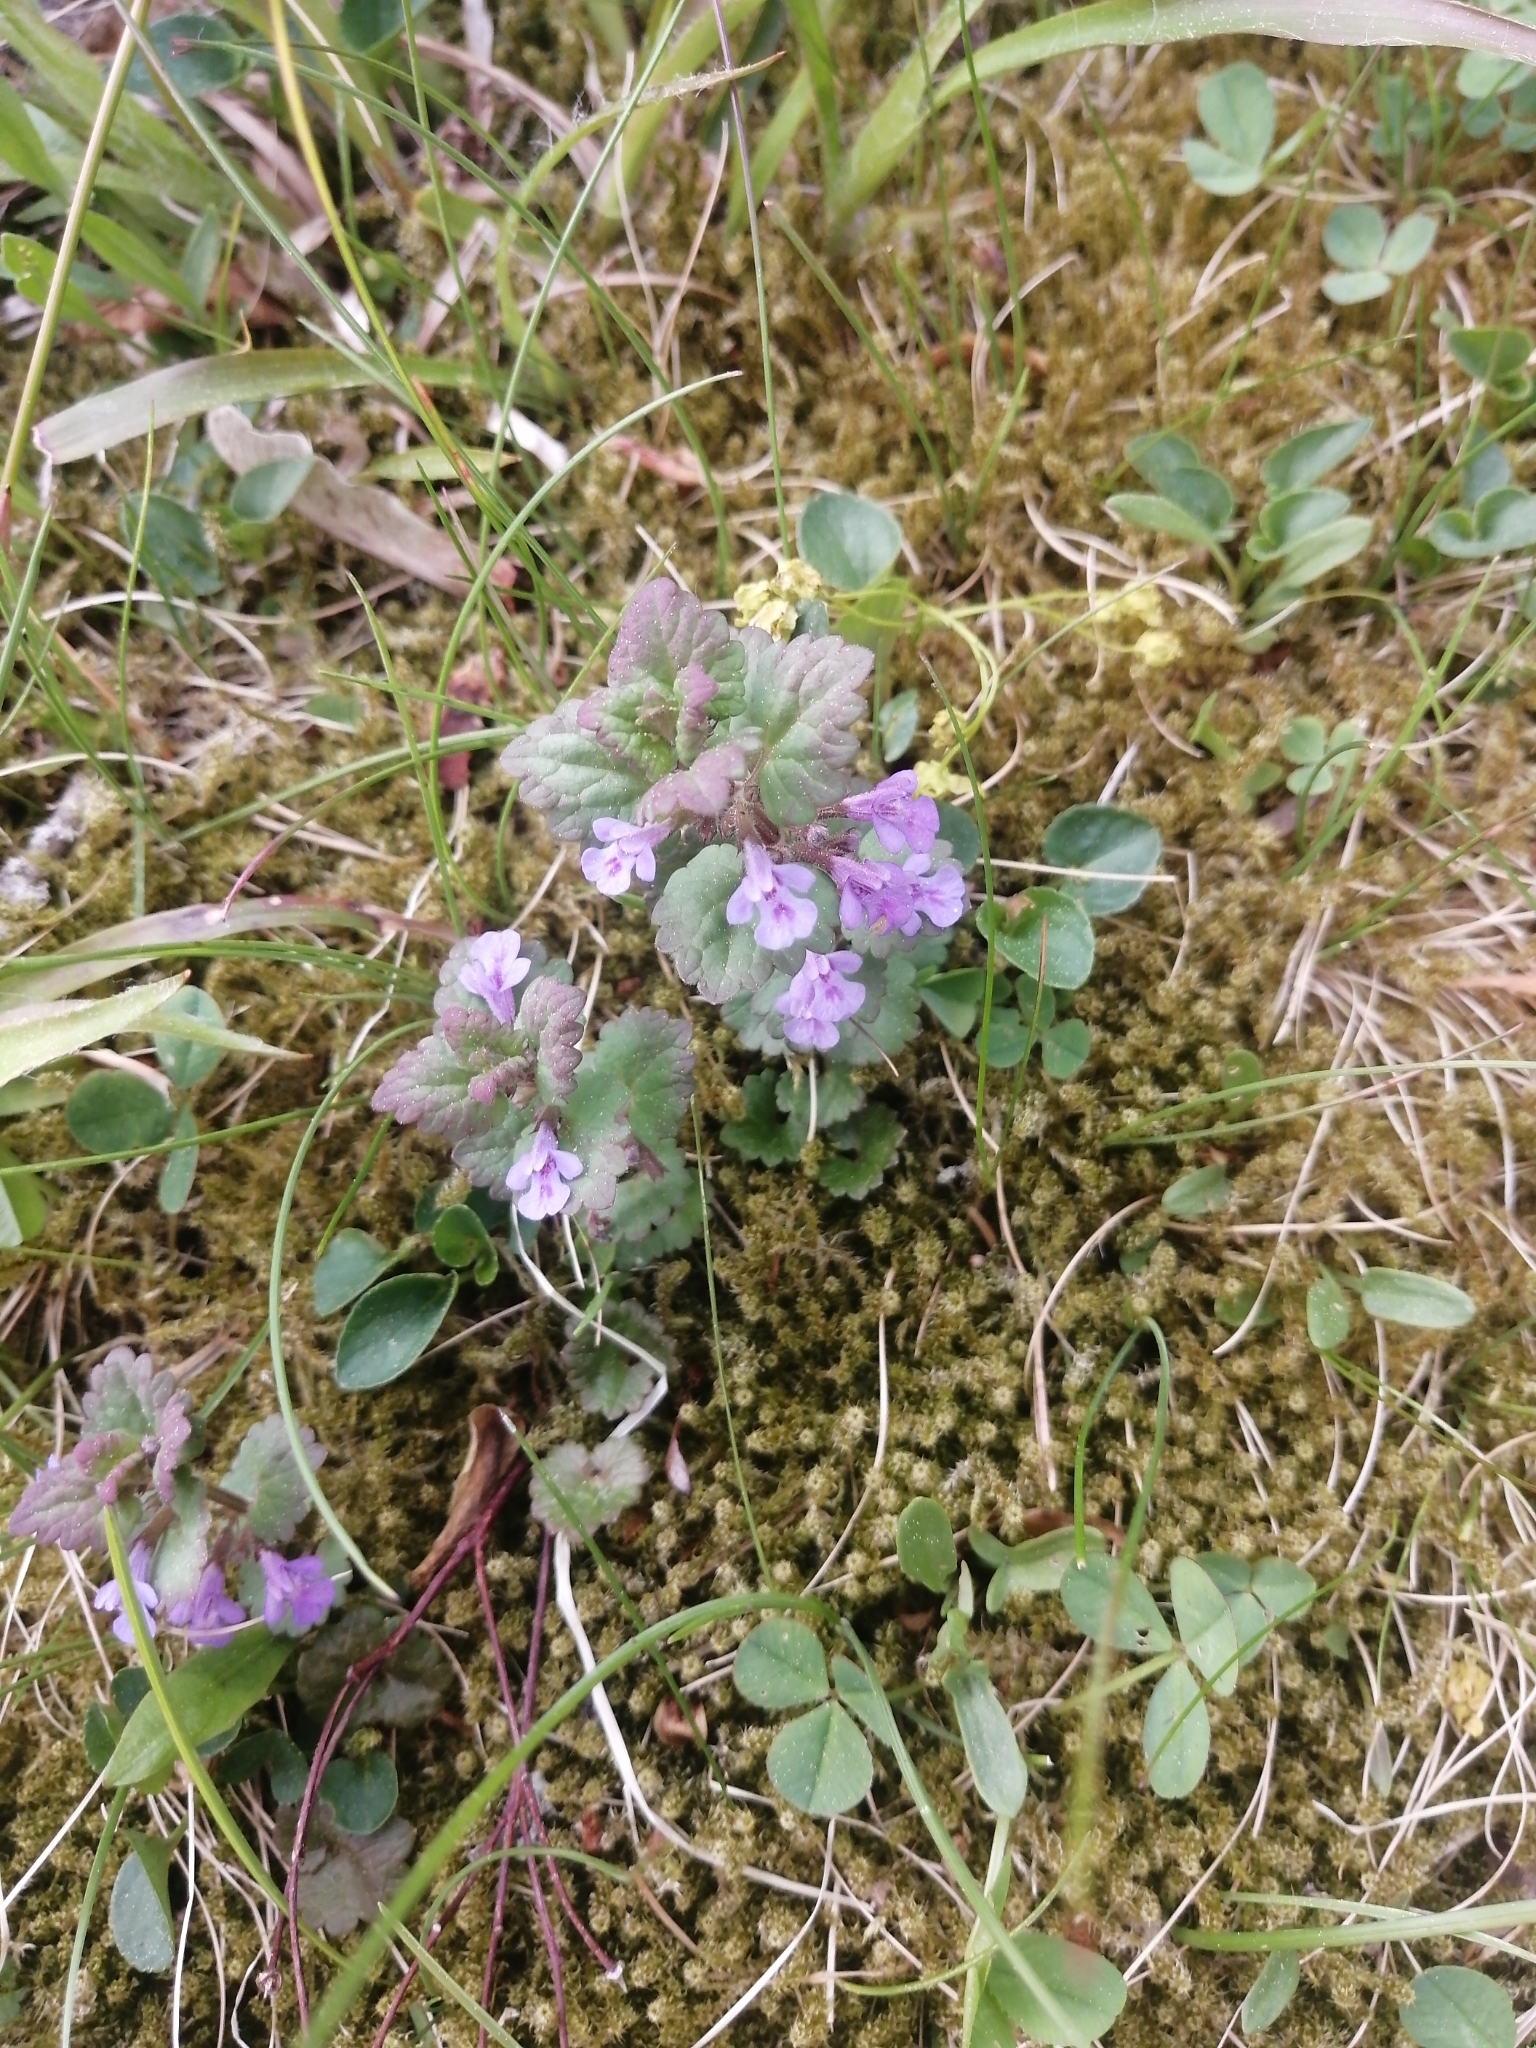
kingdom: Plantae
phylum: Tracheophyta
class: Magnoliopsida
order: Lamiales
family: Lamiaceae
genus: Glechoma
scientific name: Glechoma hederacea
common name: Ground ivy
